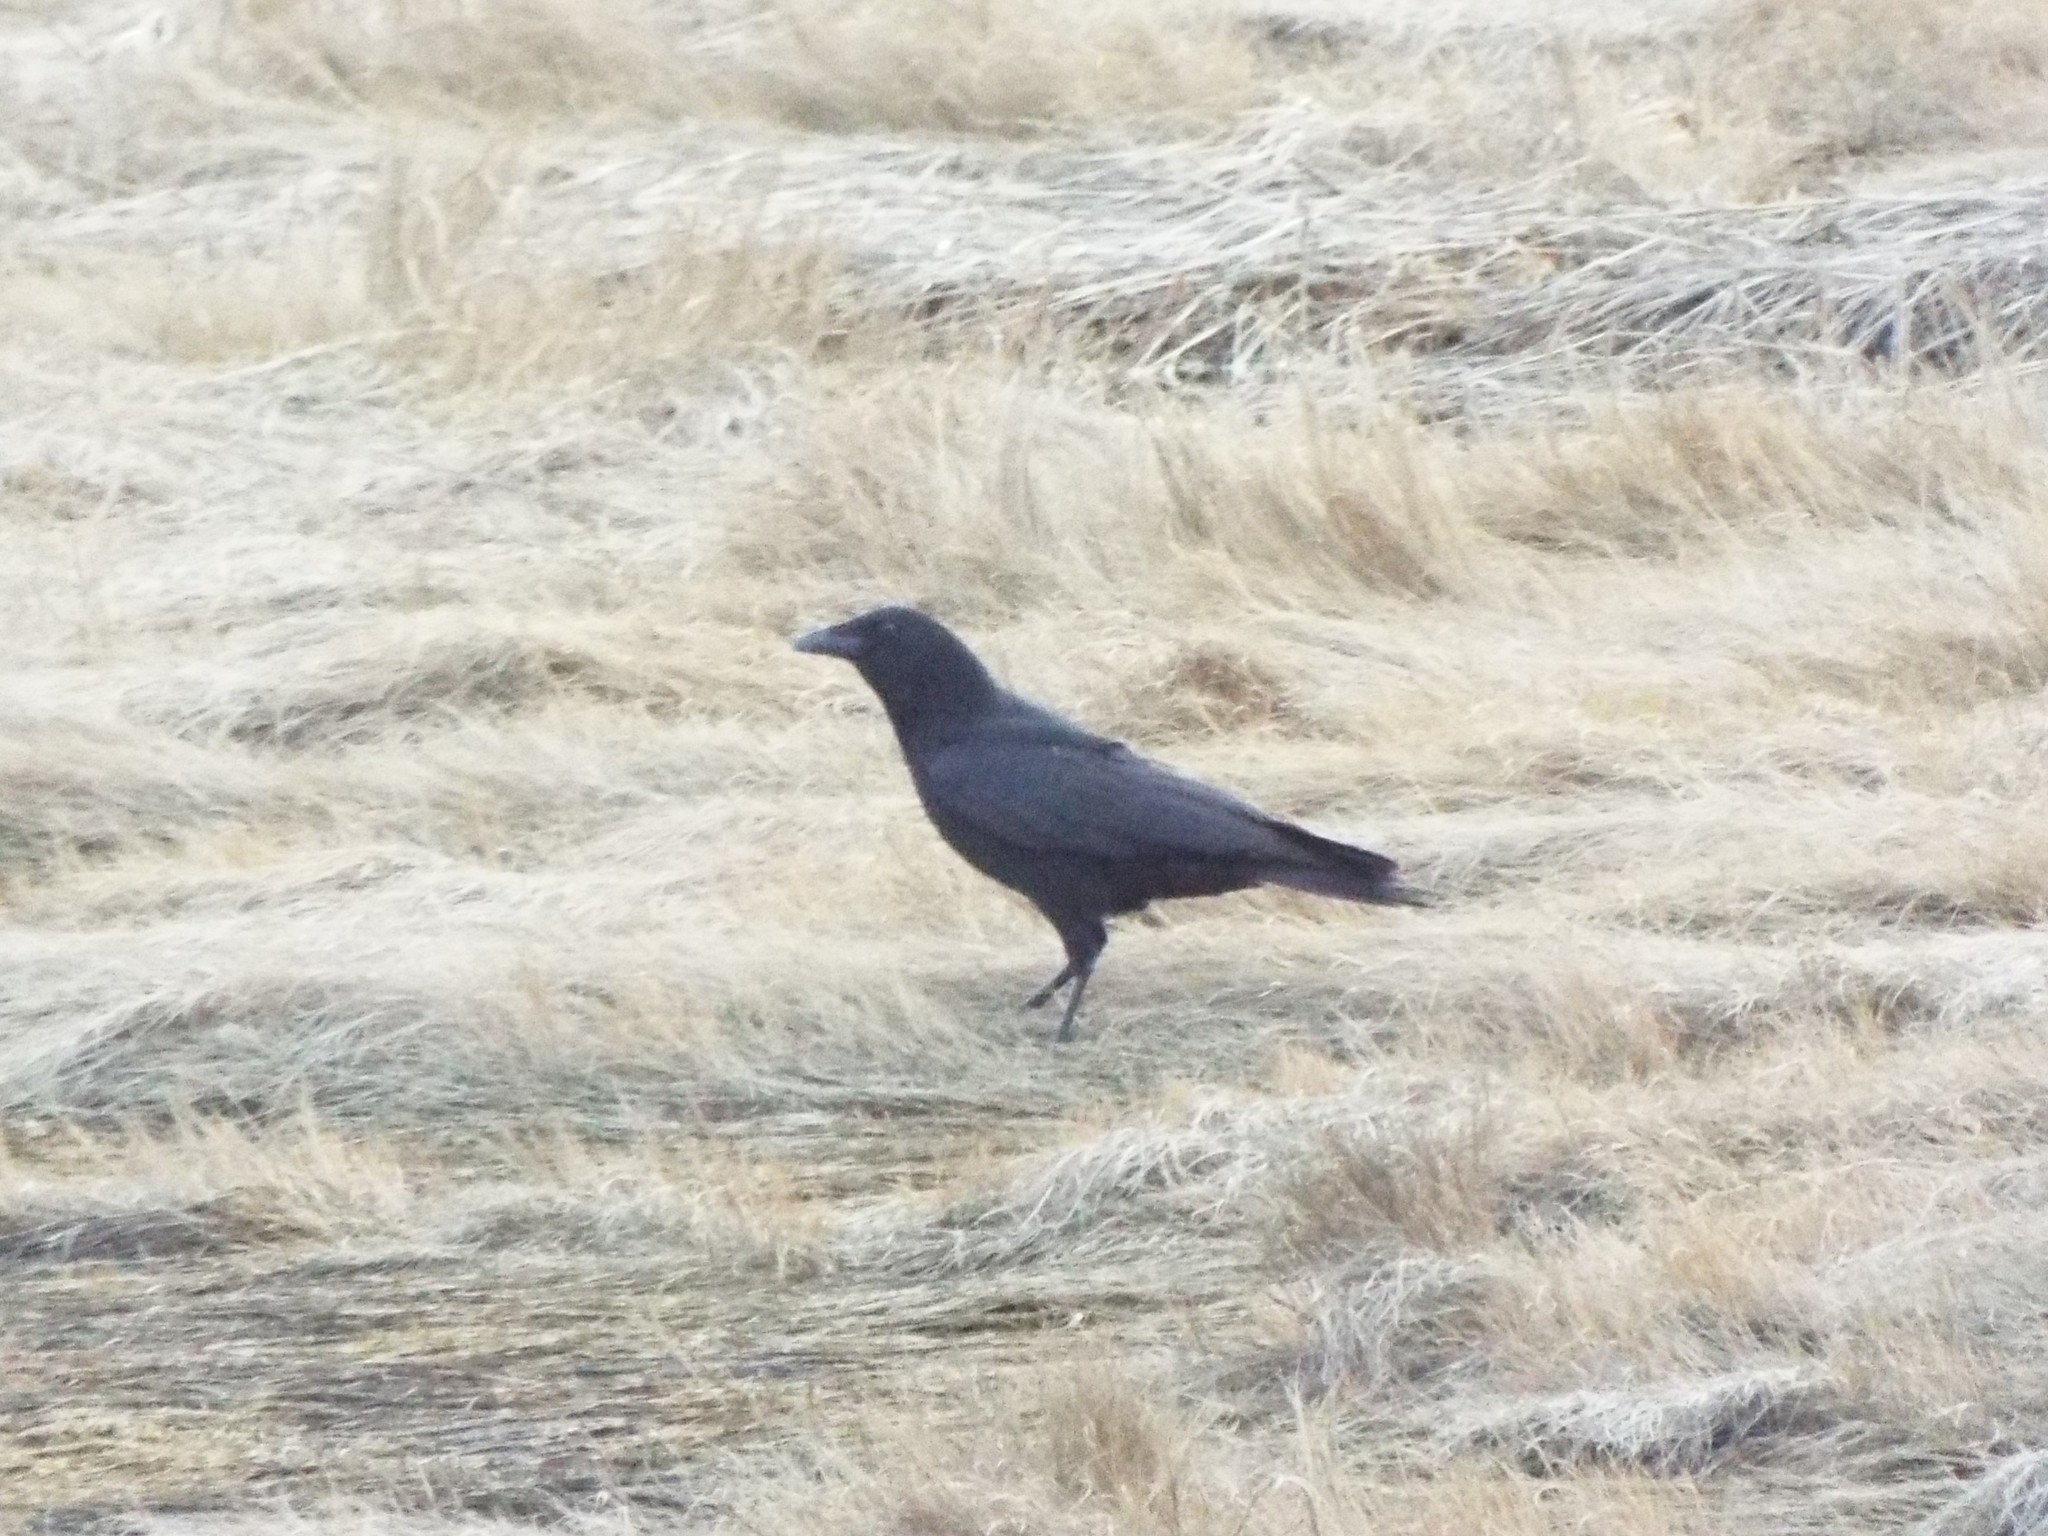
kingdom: Animalia
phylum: Chordata
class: Aves
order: Passeriformes
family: Corvidae
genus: Corvus
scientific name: Corvus brachyrhynchos
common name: American crow
